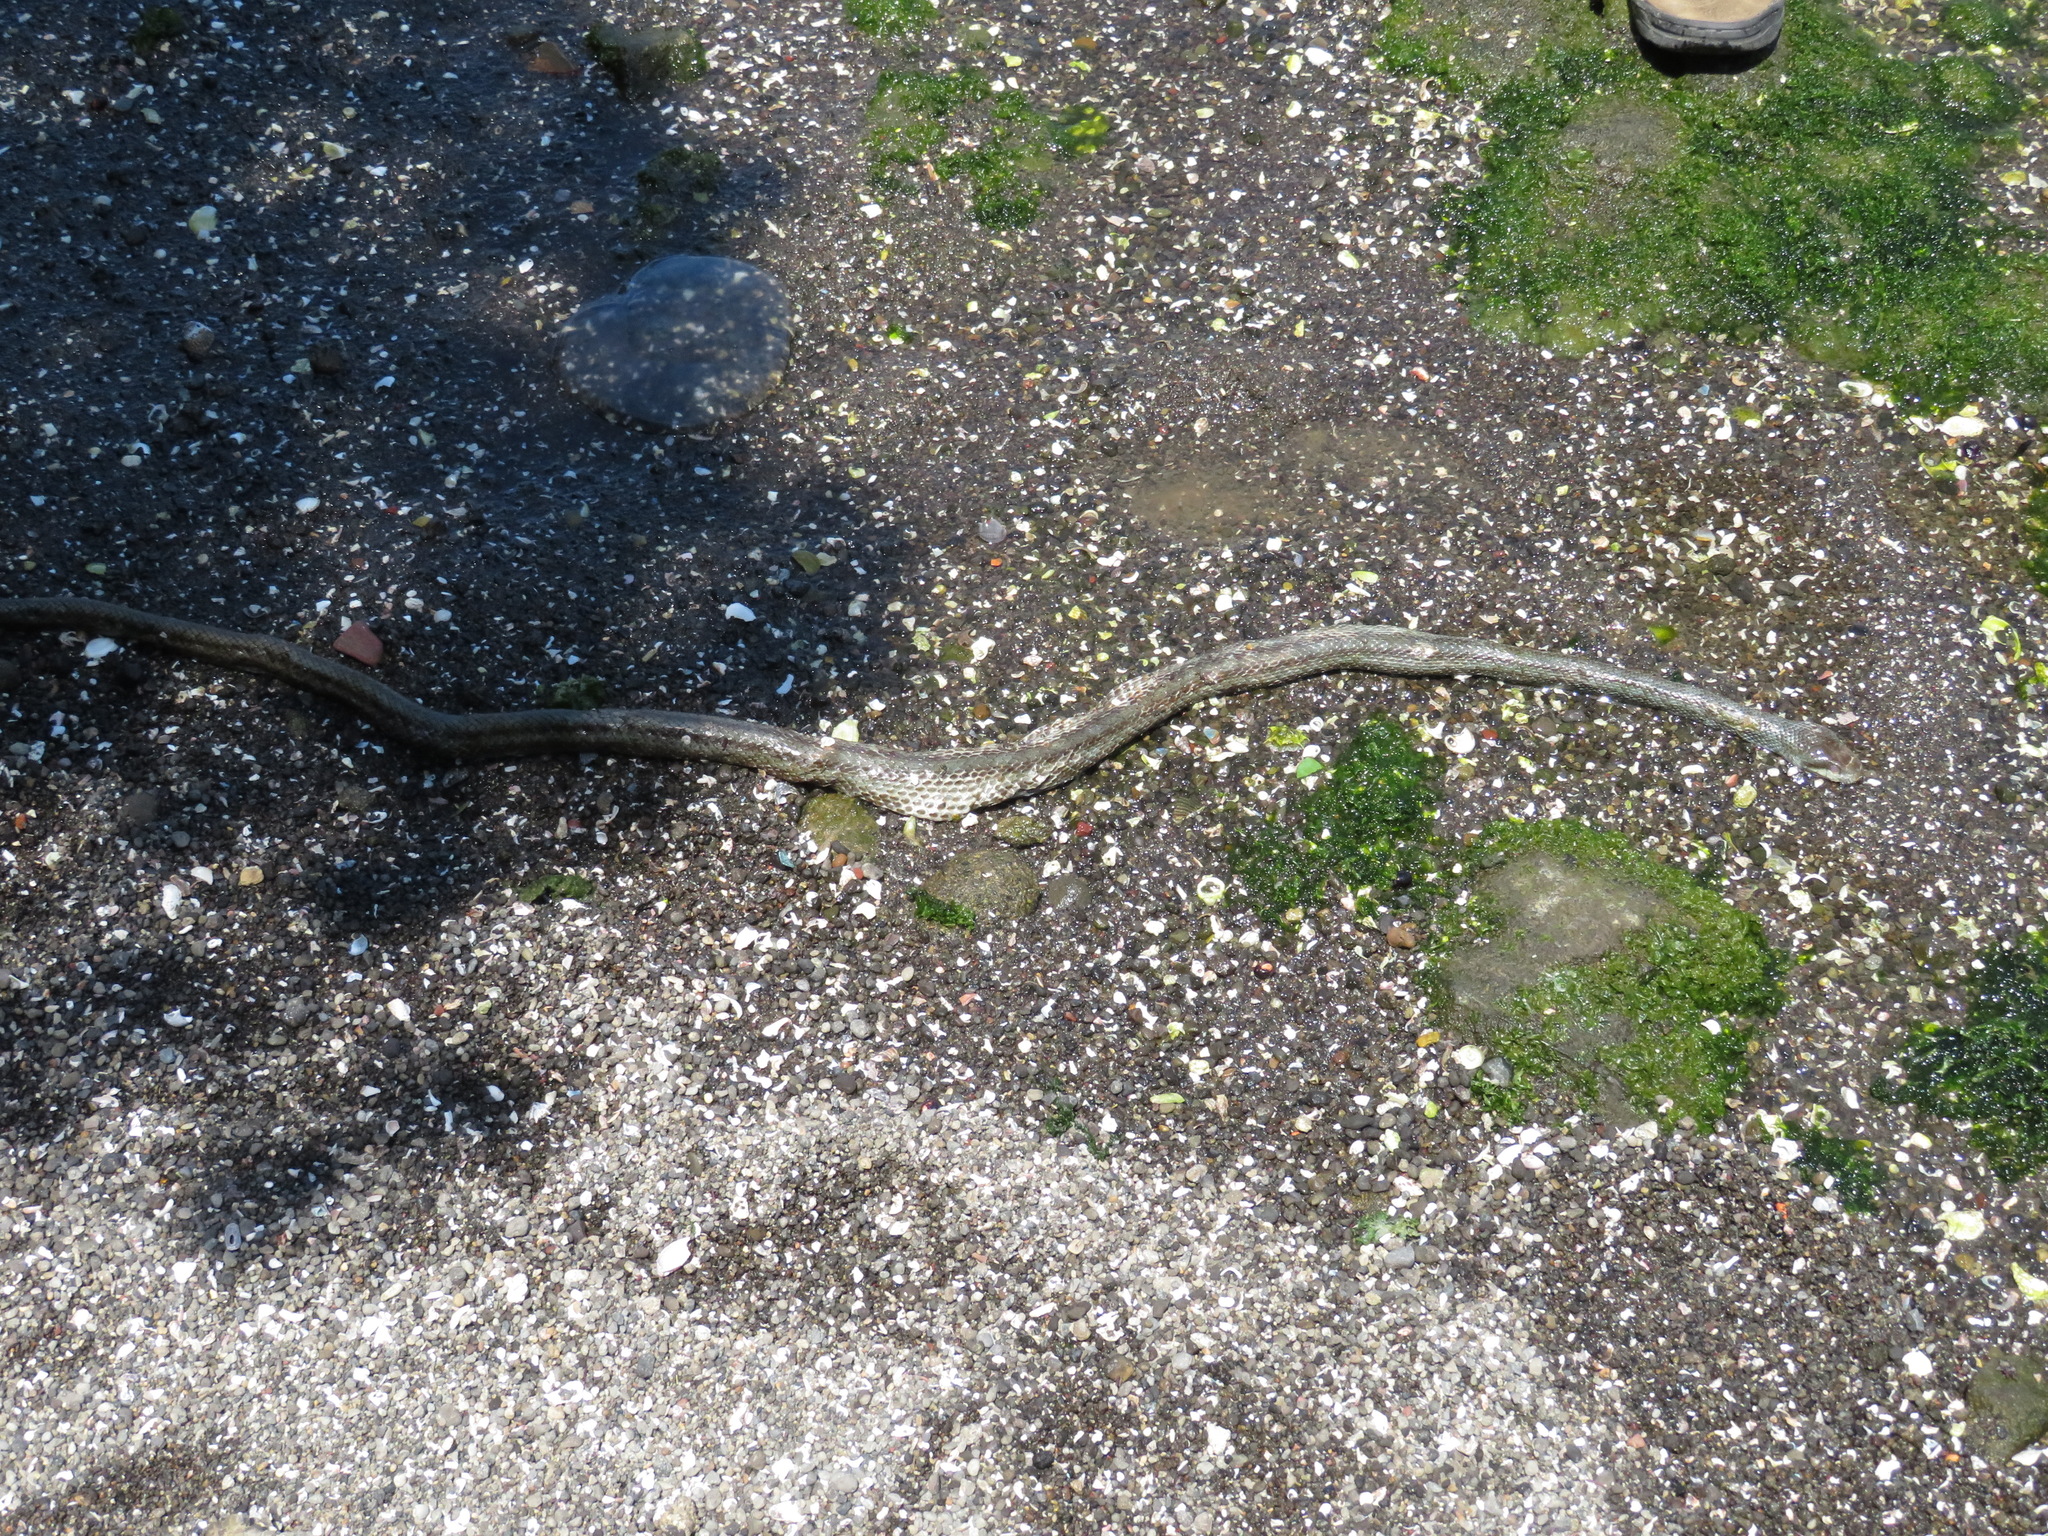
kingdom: Animalia
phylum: Chordata
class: Squamata
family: Colubridae
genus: Elaphe
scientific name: Elaphe climacophora
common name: Japanese ratsnake
